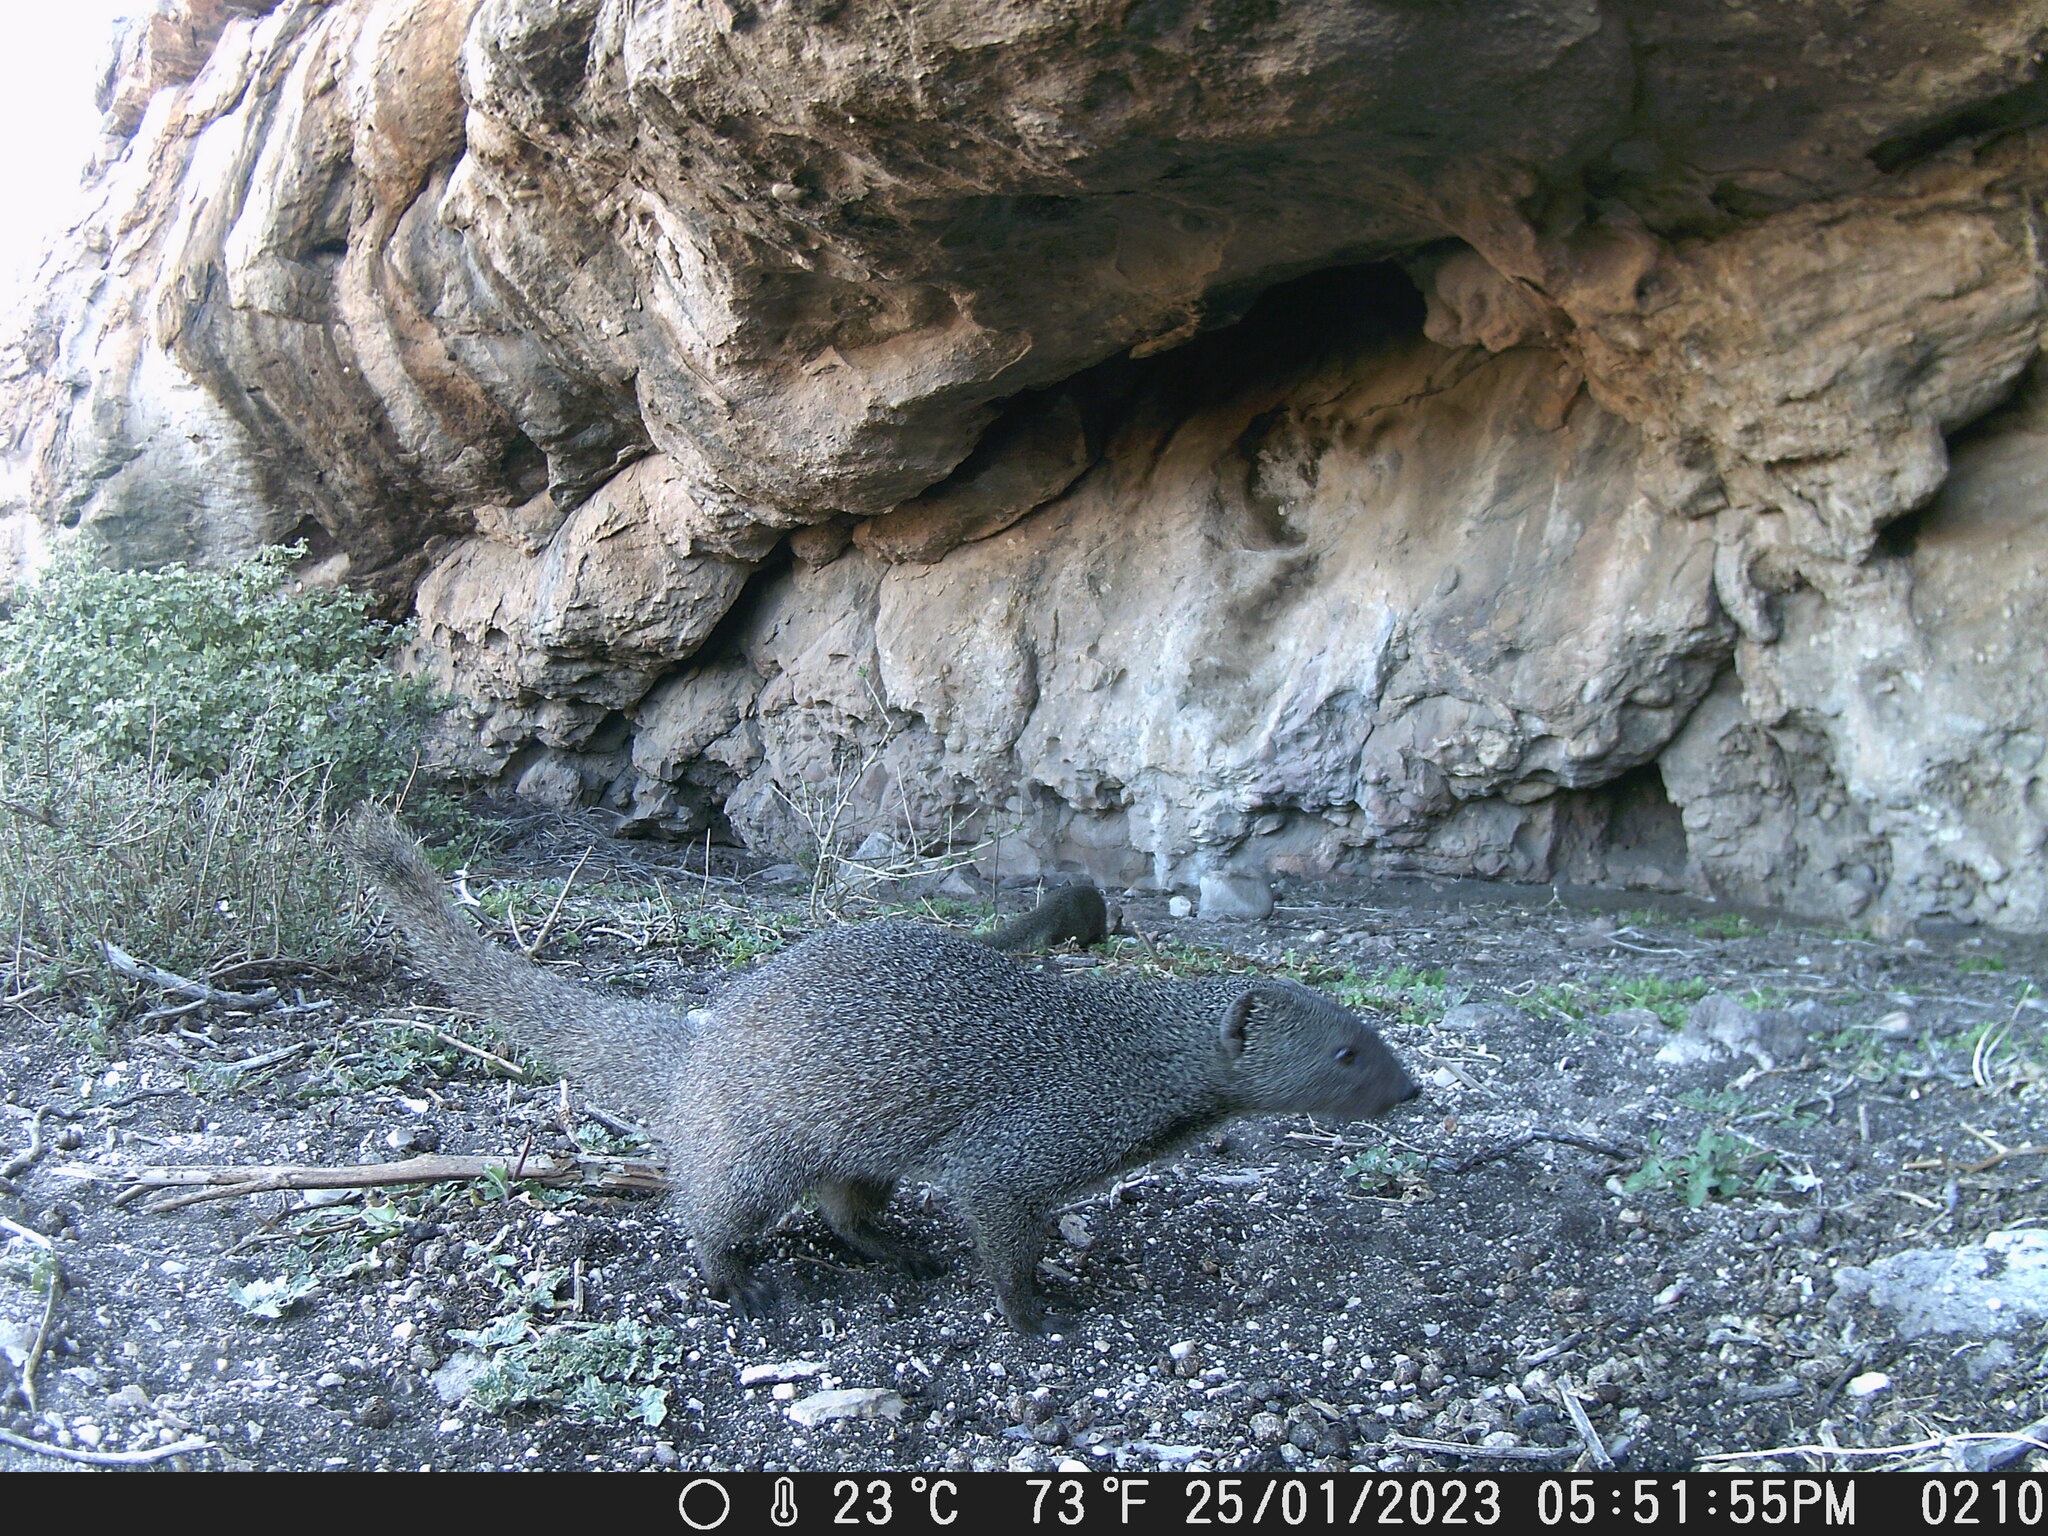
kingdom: Animalia
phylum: Chordata
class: Mammalia
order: Carnivora
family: Herpestidae
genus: Galerella
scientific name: Galerella pulverulenta
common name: Cape gray mongoose
